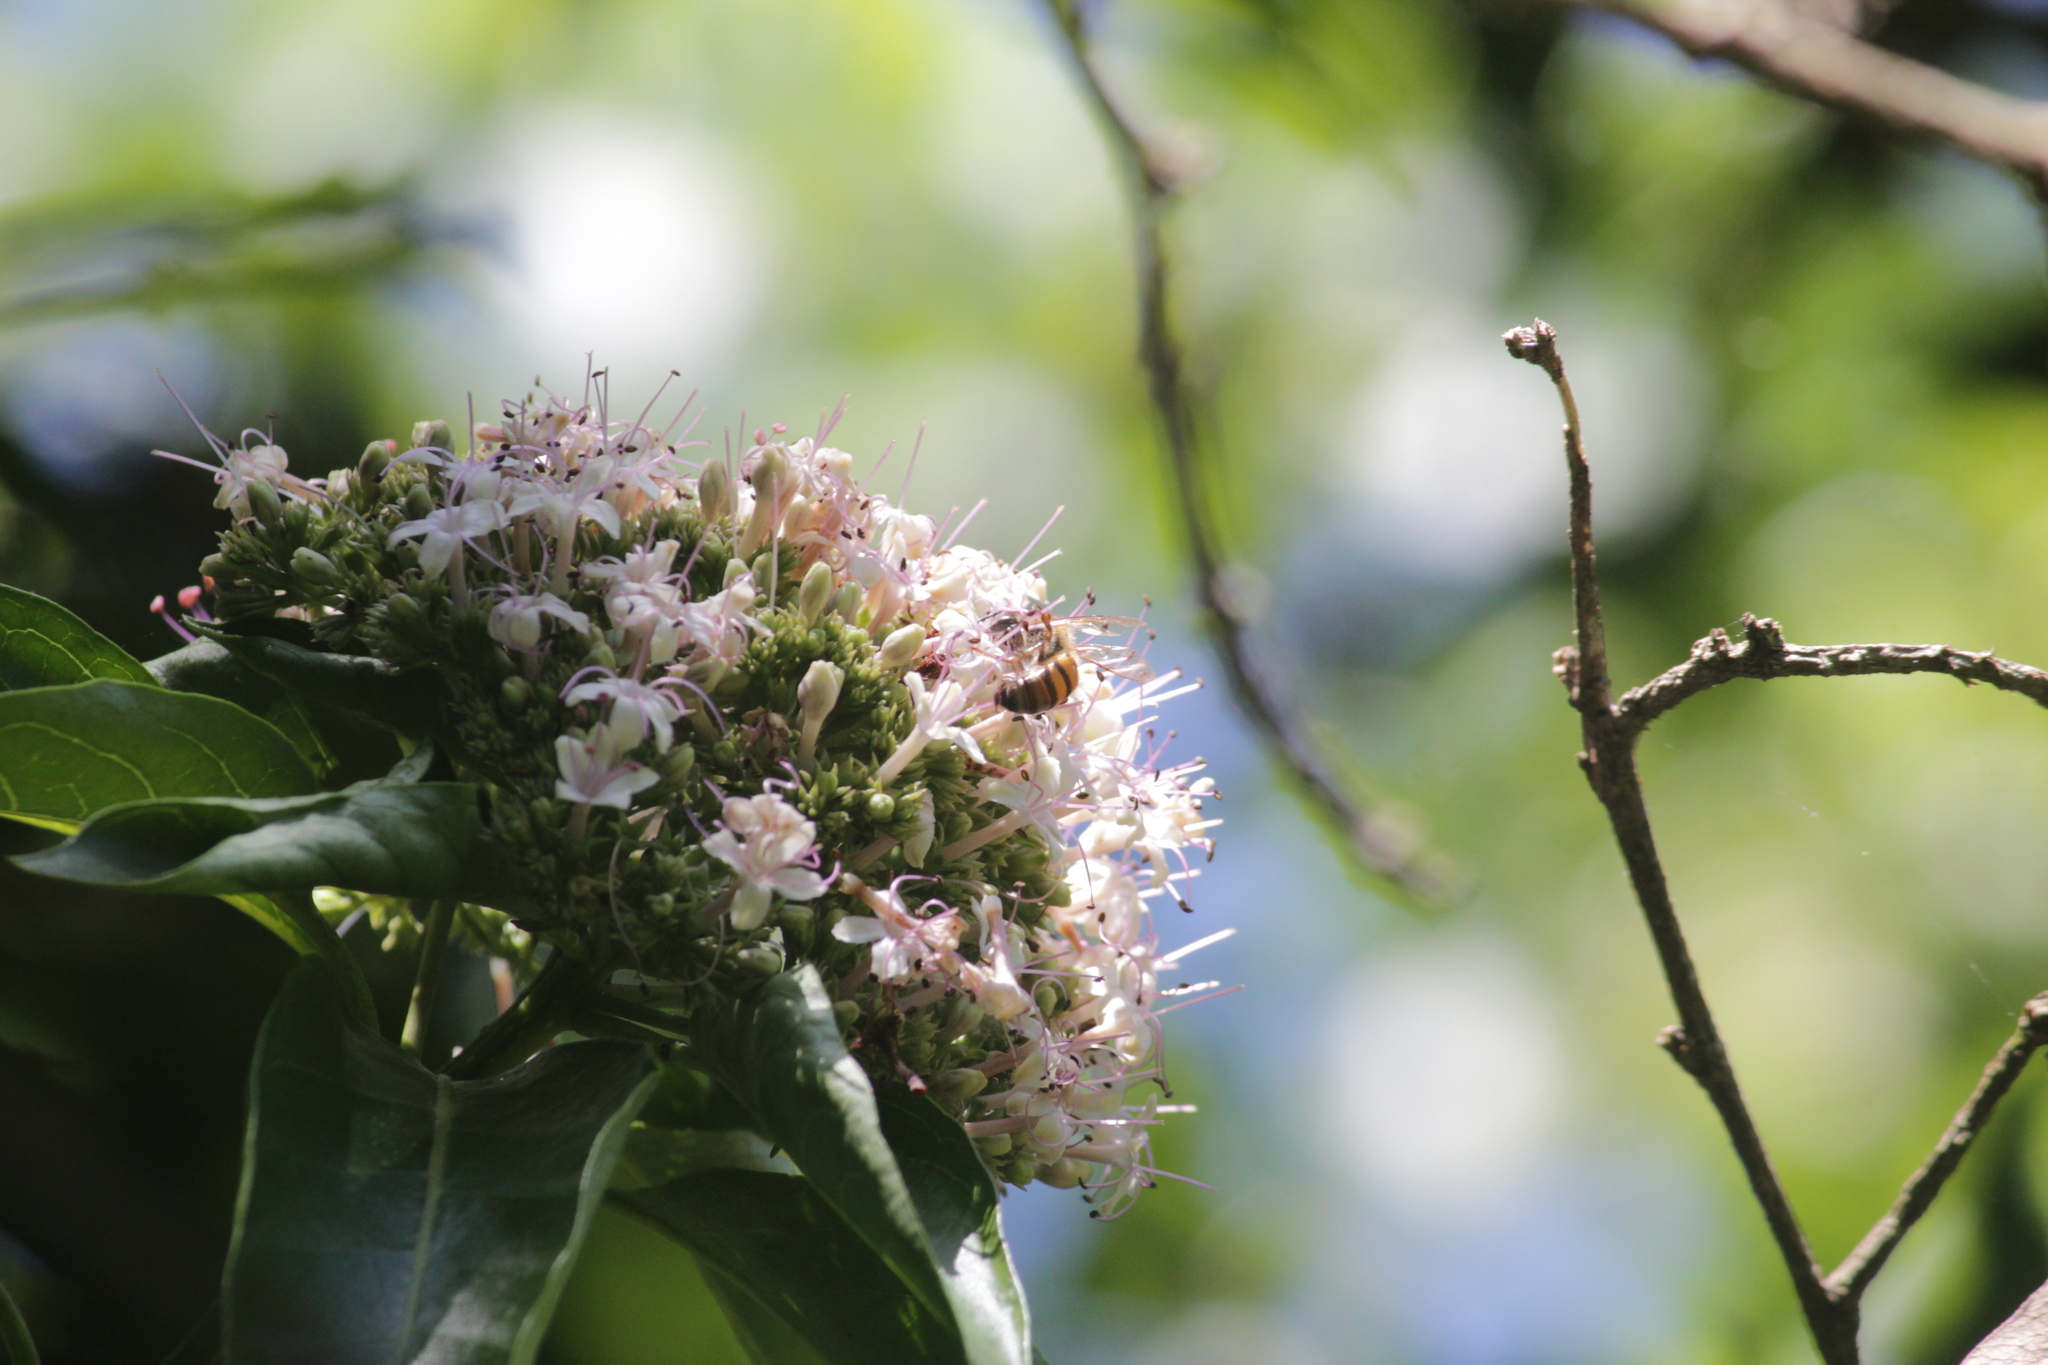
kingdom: Plantae
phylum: Tracheophyta
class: Magnoliopsida
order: Lamiales
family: Lamiaceae
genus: Volkameria
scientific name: Volkameria glabra
